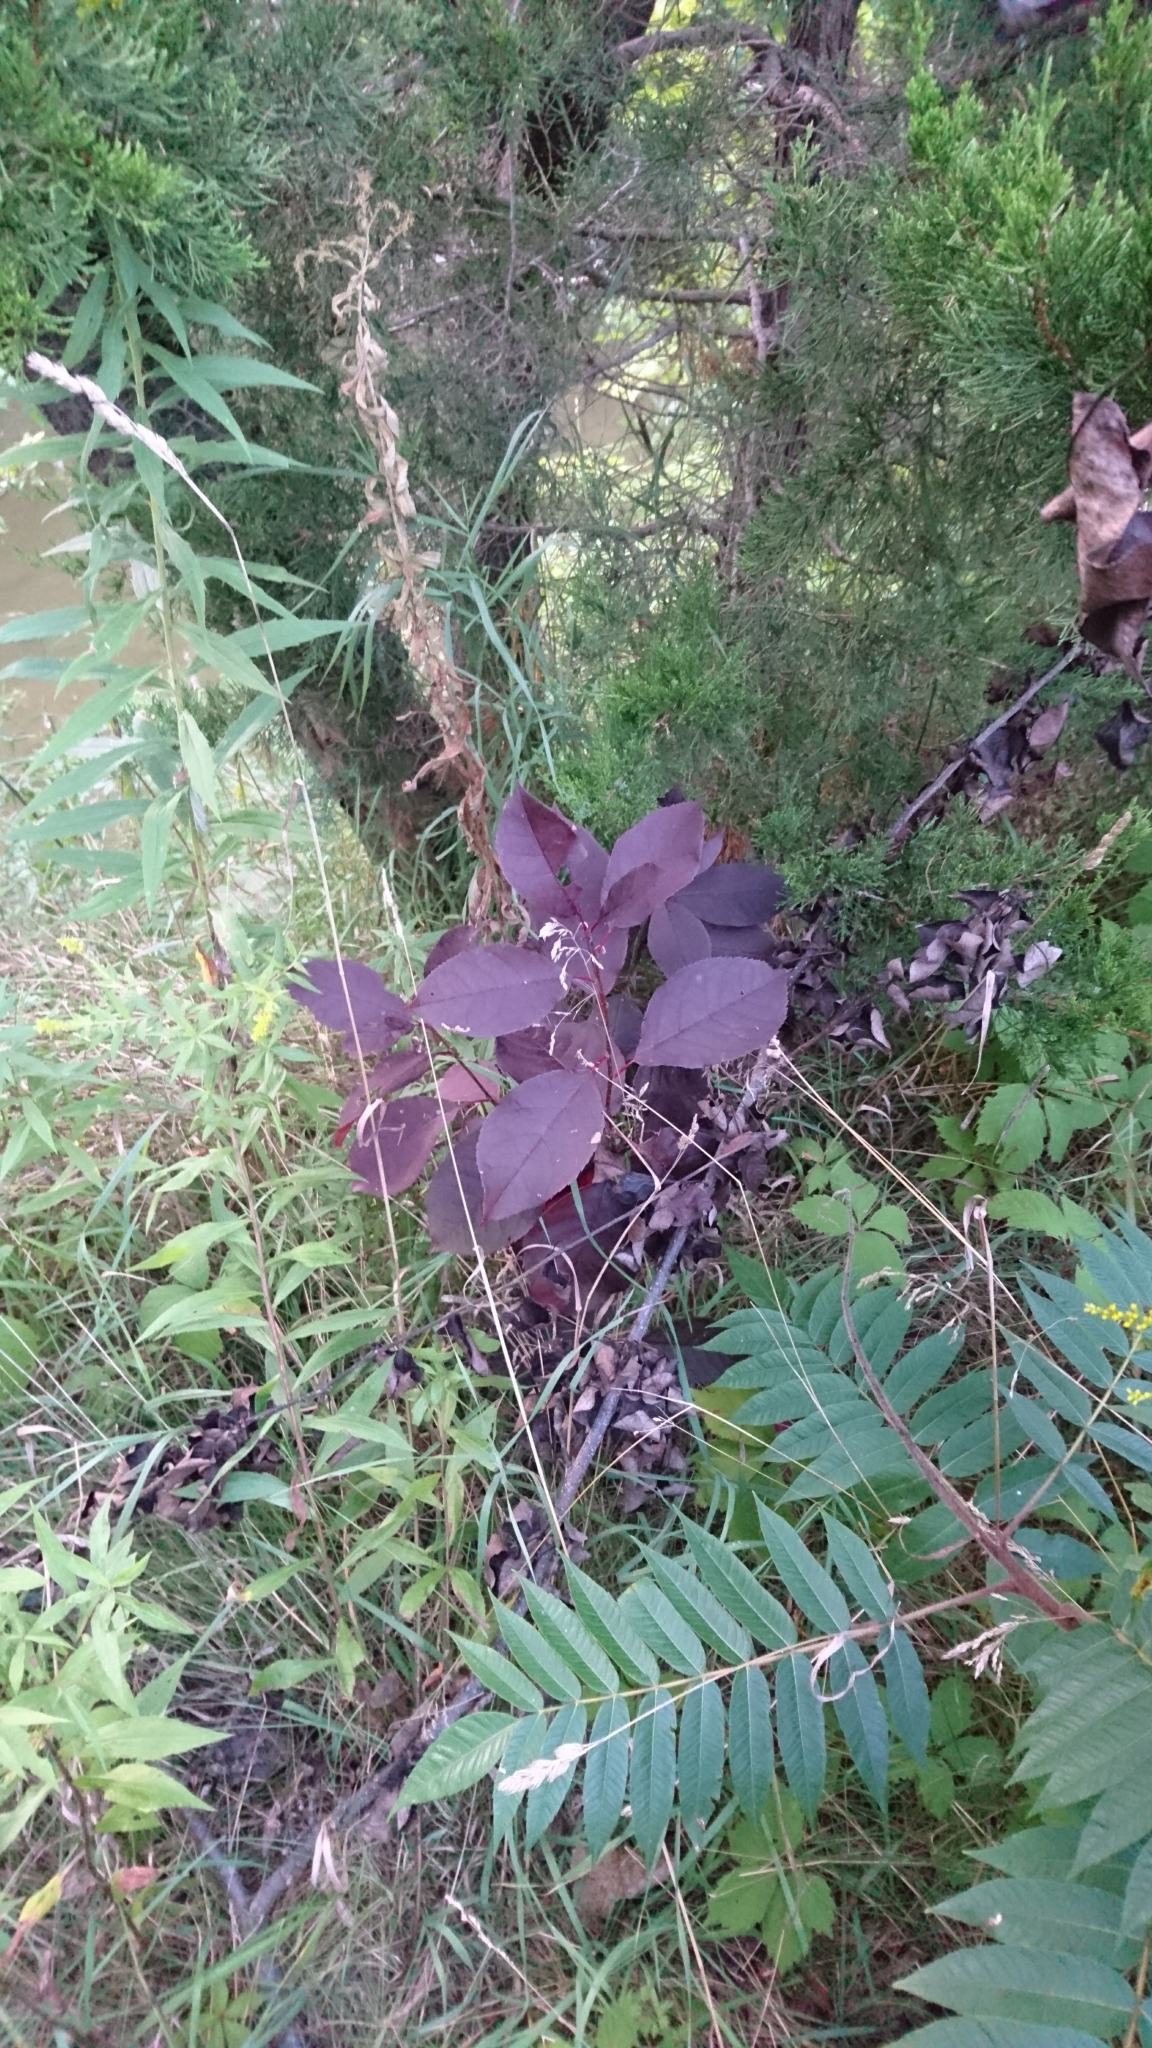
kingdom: Plantae
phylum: Tracheophyta
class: Magnoliopsida
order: Rosales
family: Rosaceae
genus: Prunus
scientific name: Prunus virginiana
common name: Chokecherry
